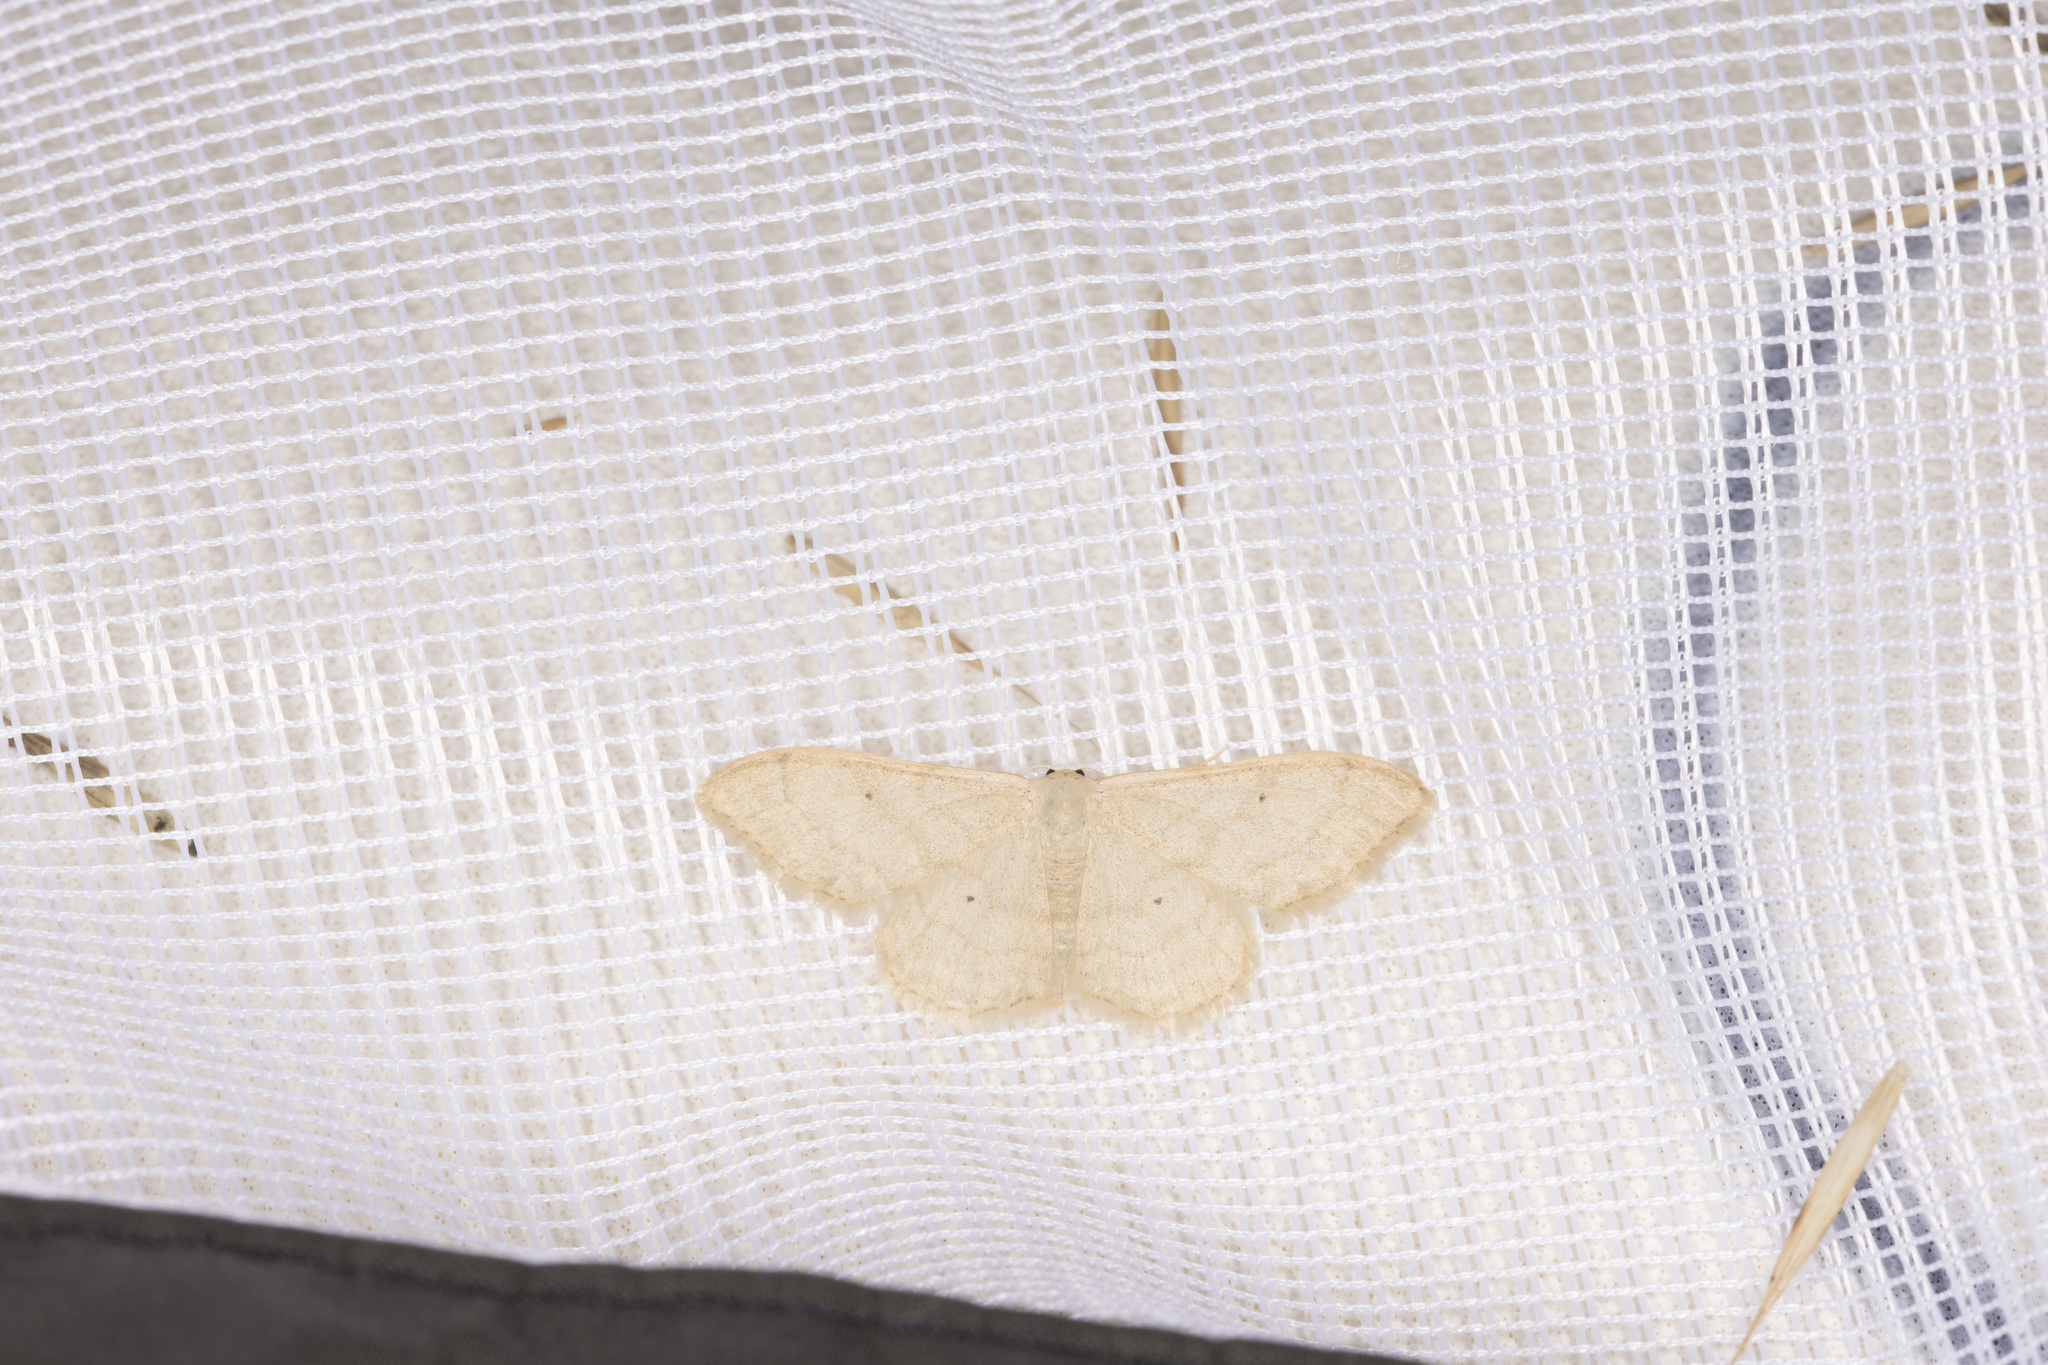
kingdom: Animalia
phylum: Arthropoda
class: Insecta
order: Lepidoptera
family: Geometridae
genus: Idaea
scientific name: Idaea straminata
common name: Plain wave
